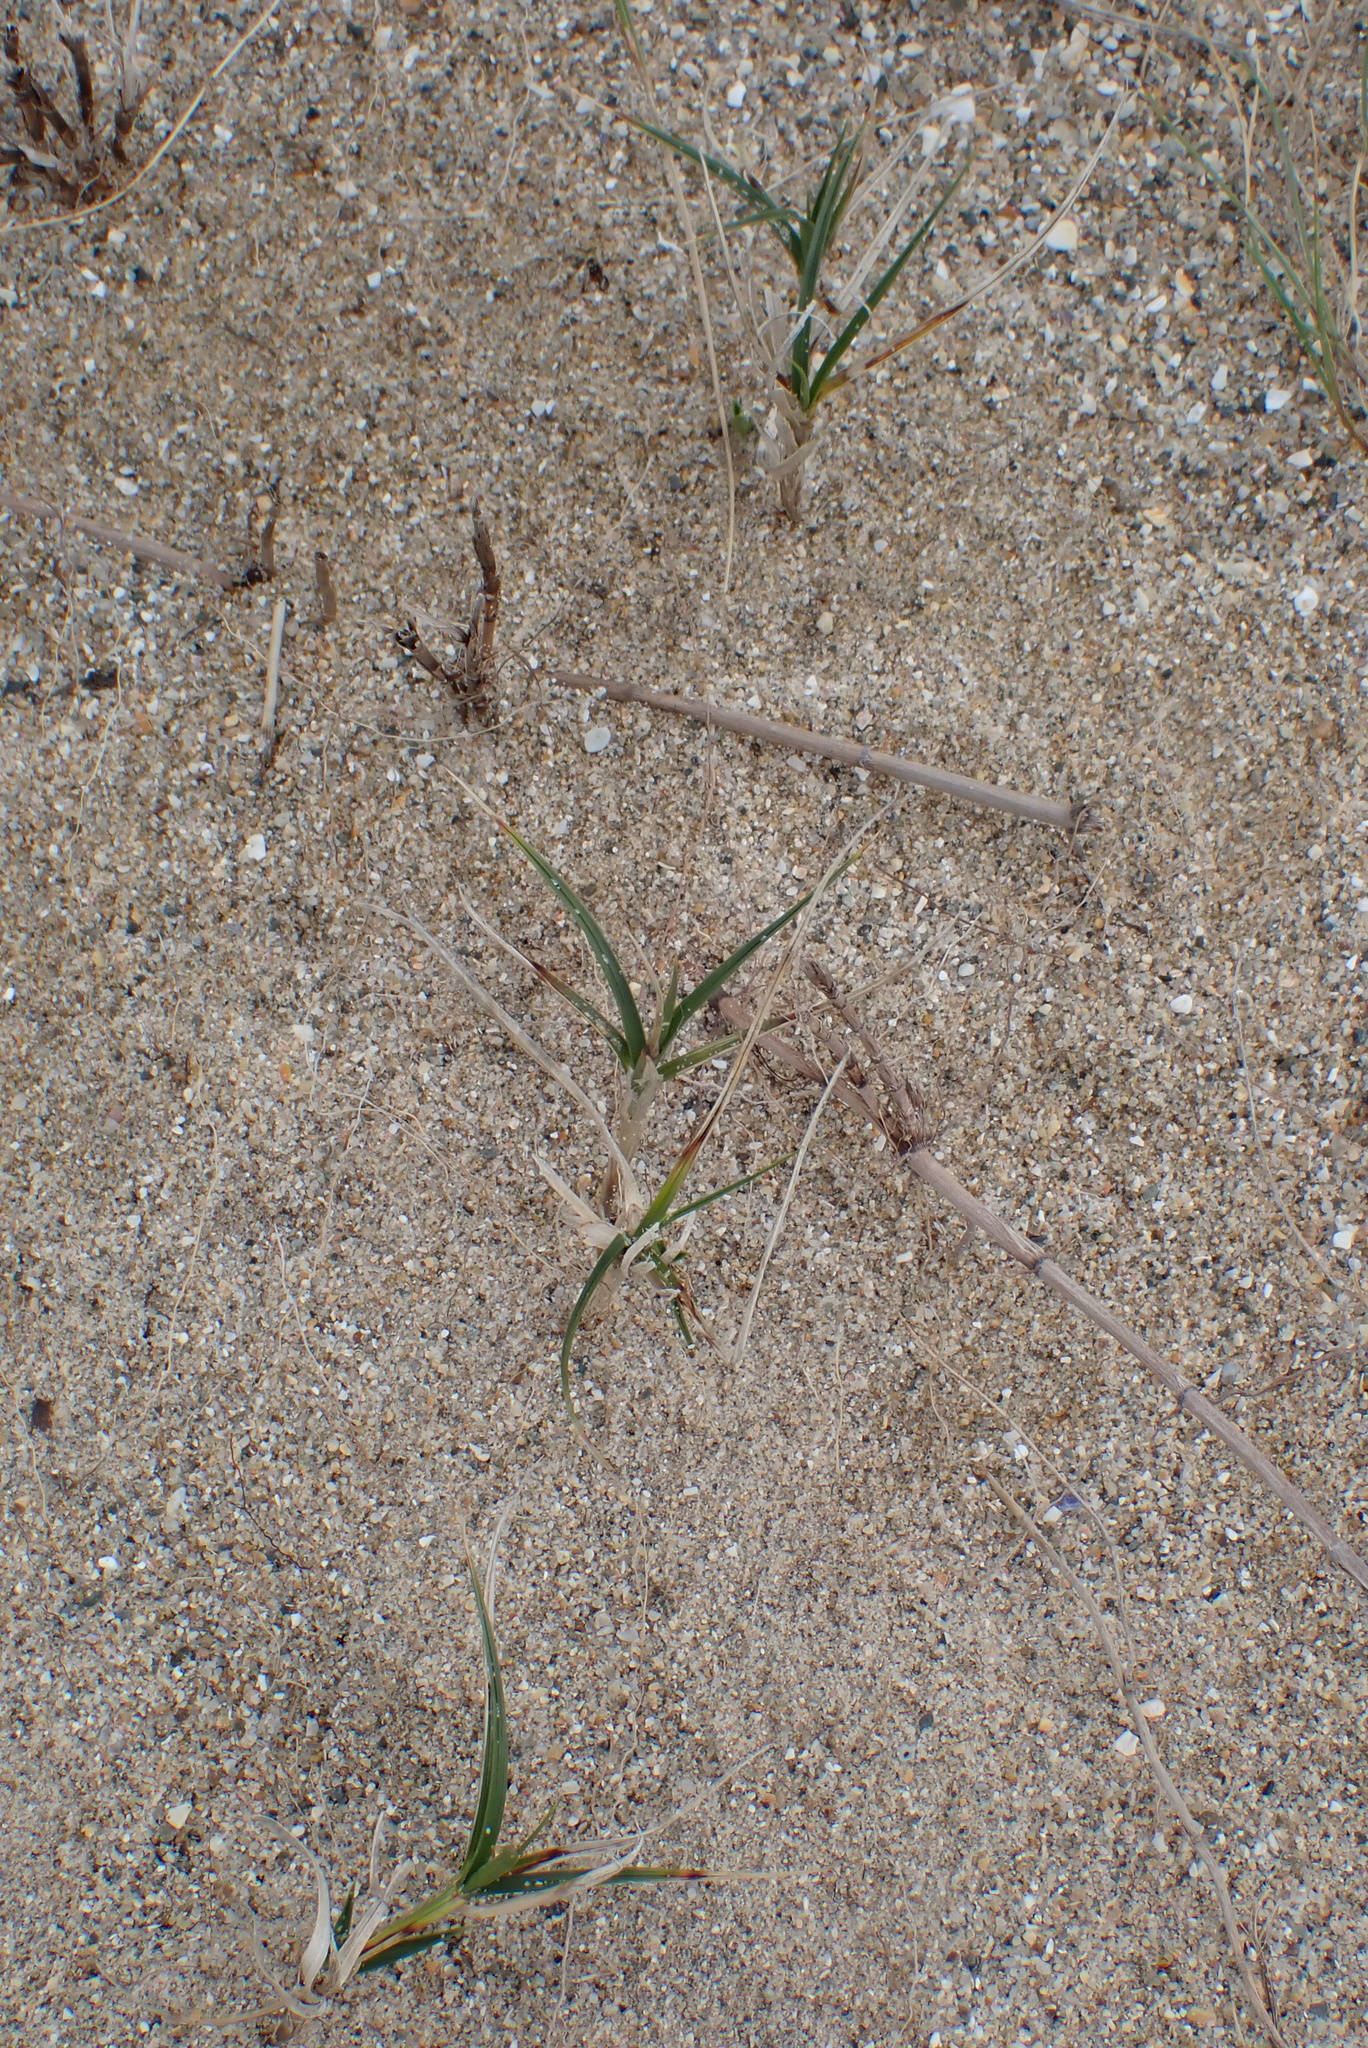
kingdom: Plantae
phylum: Tracheophyta
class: Liliopsida
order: Poales
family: Cyperaceae
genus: Carex
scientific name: Carex arenaria
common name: Sand sedge
